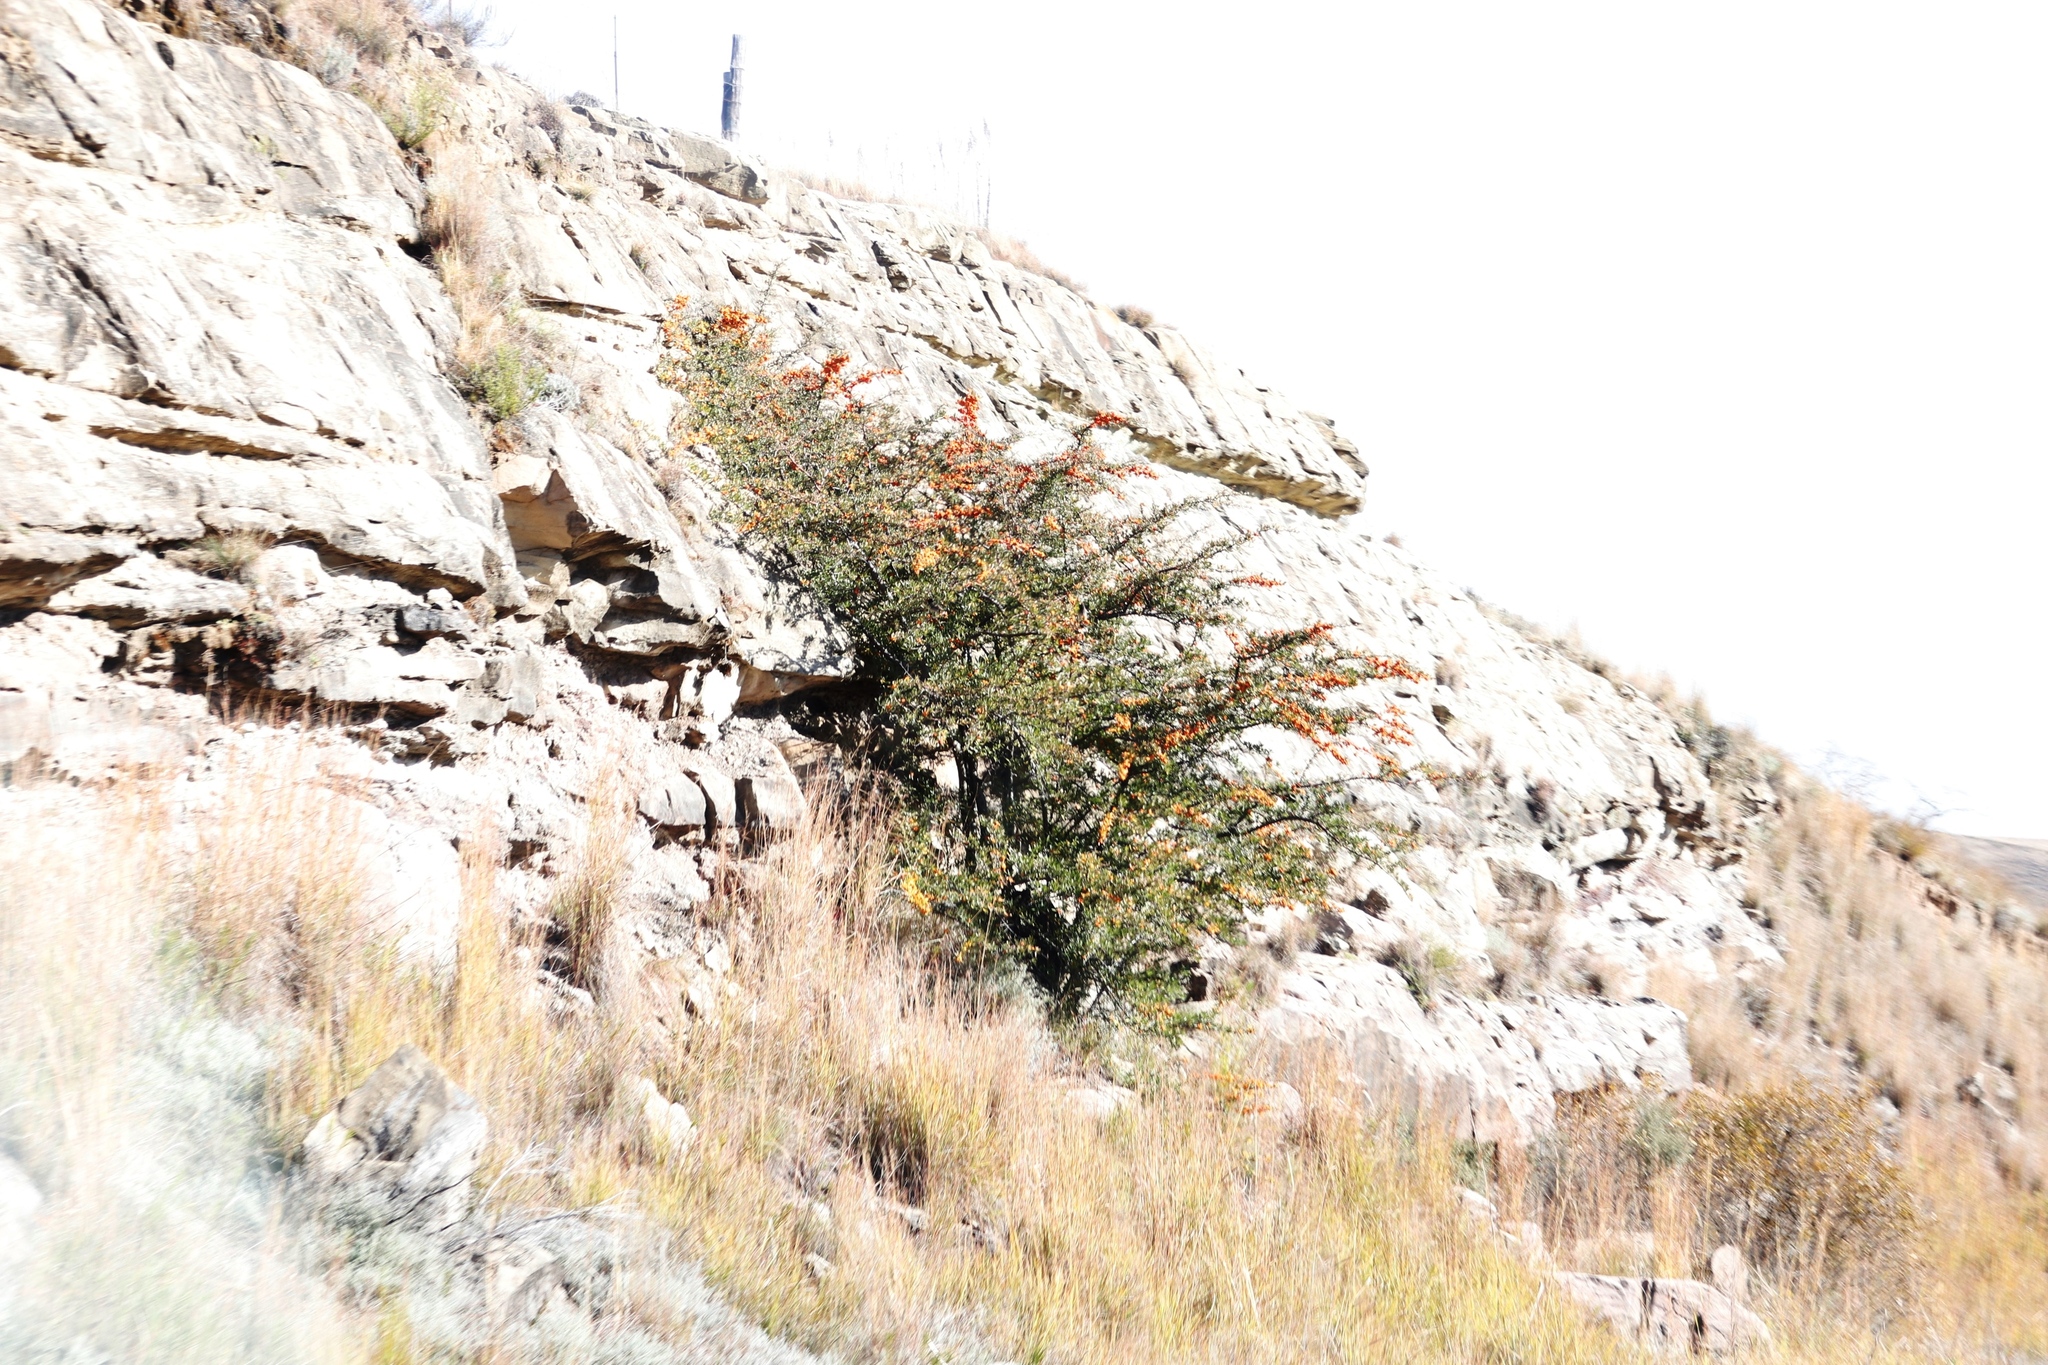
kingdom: Plantae
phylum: Tracheophyta
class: Magnoliopsida
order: Rosales
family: Rosaceae
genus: Pyracantha
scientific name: Pyracantha angustifolia
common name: Narrowleaf firethorn
